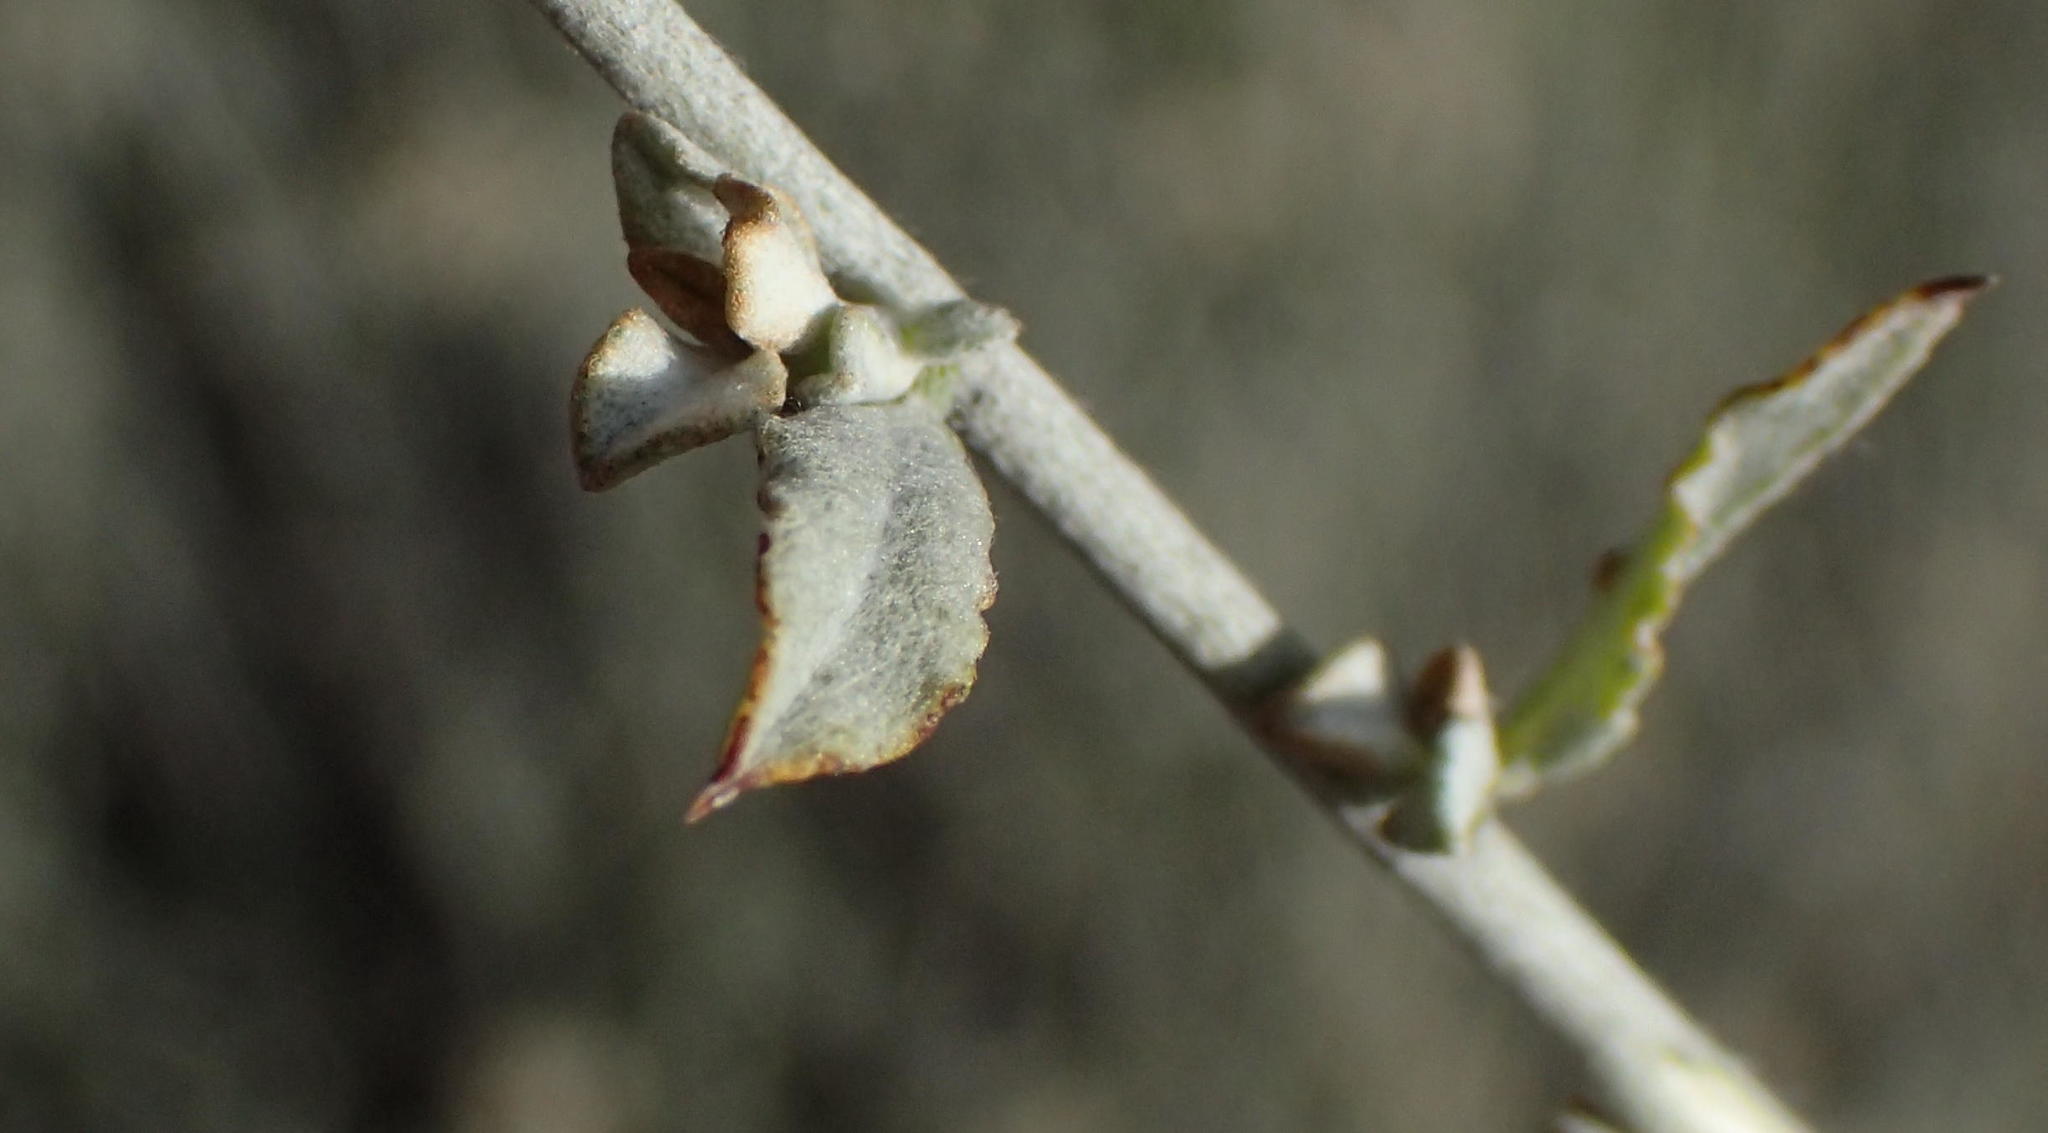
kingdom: Plantae
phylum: Tracheophyta
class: Magnoliopsida
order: Asterales
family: Asteraceae
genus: Helichrysum
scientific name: Helichrysum zeyheri
